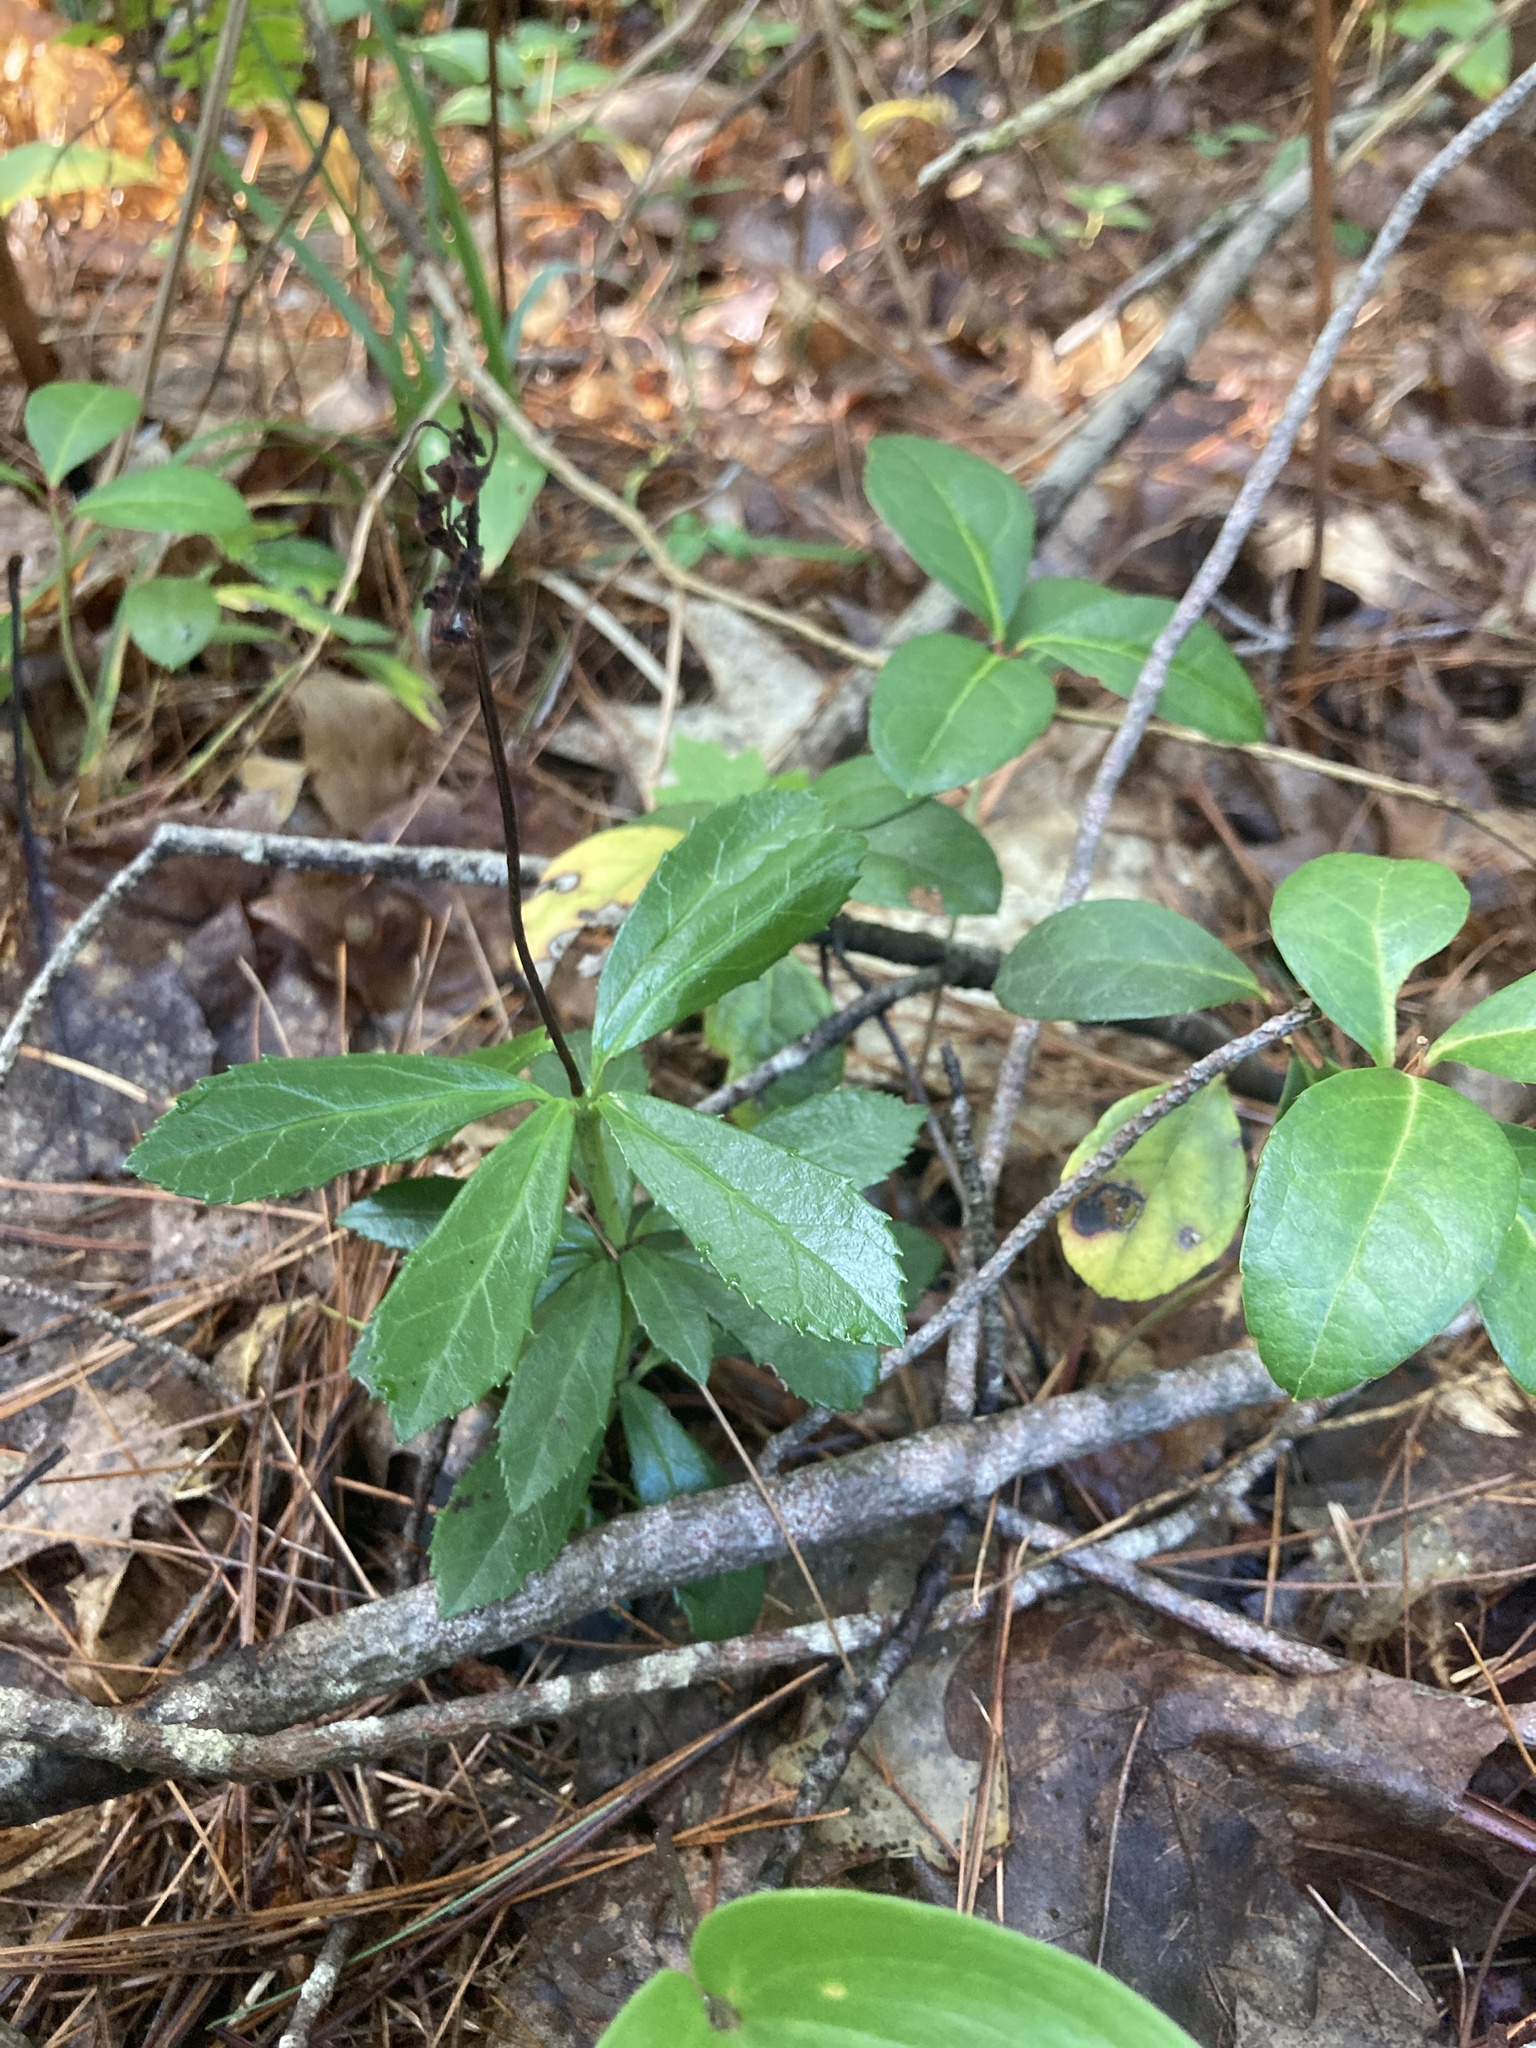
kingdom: Plantae
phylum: Tracheophyta
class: Magnoliopsida
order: Ericales
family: Ericaceae
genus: Chimaphila
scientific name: Chimaphila umbellata
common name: Pipsissewa
